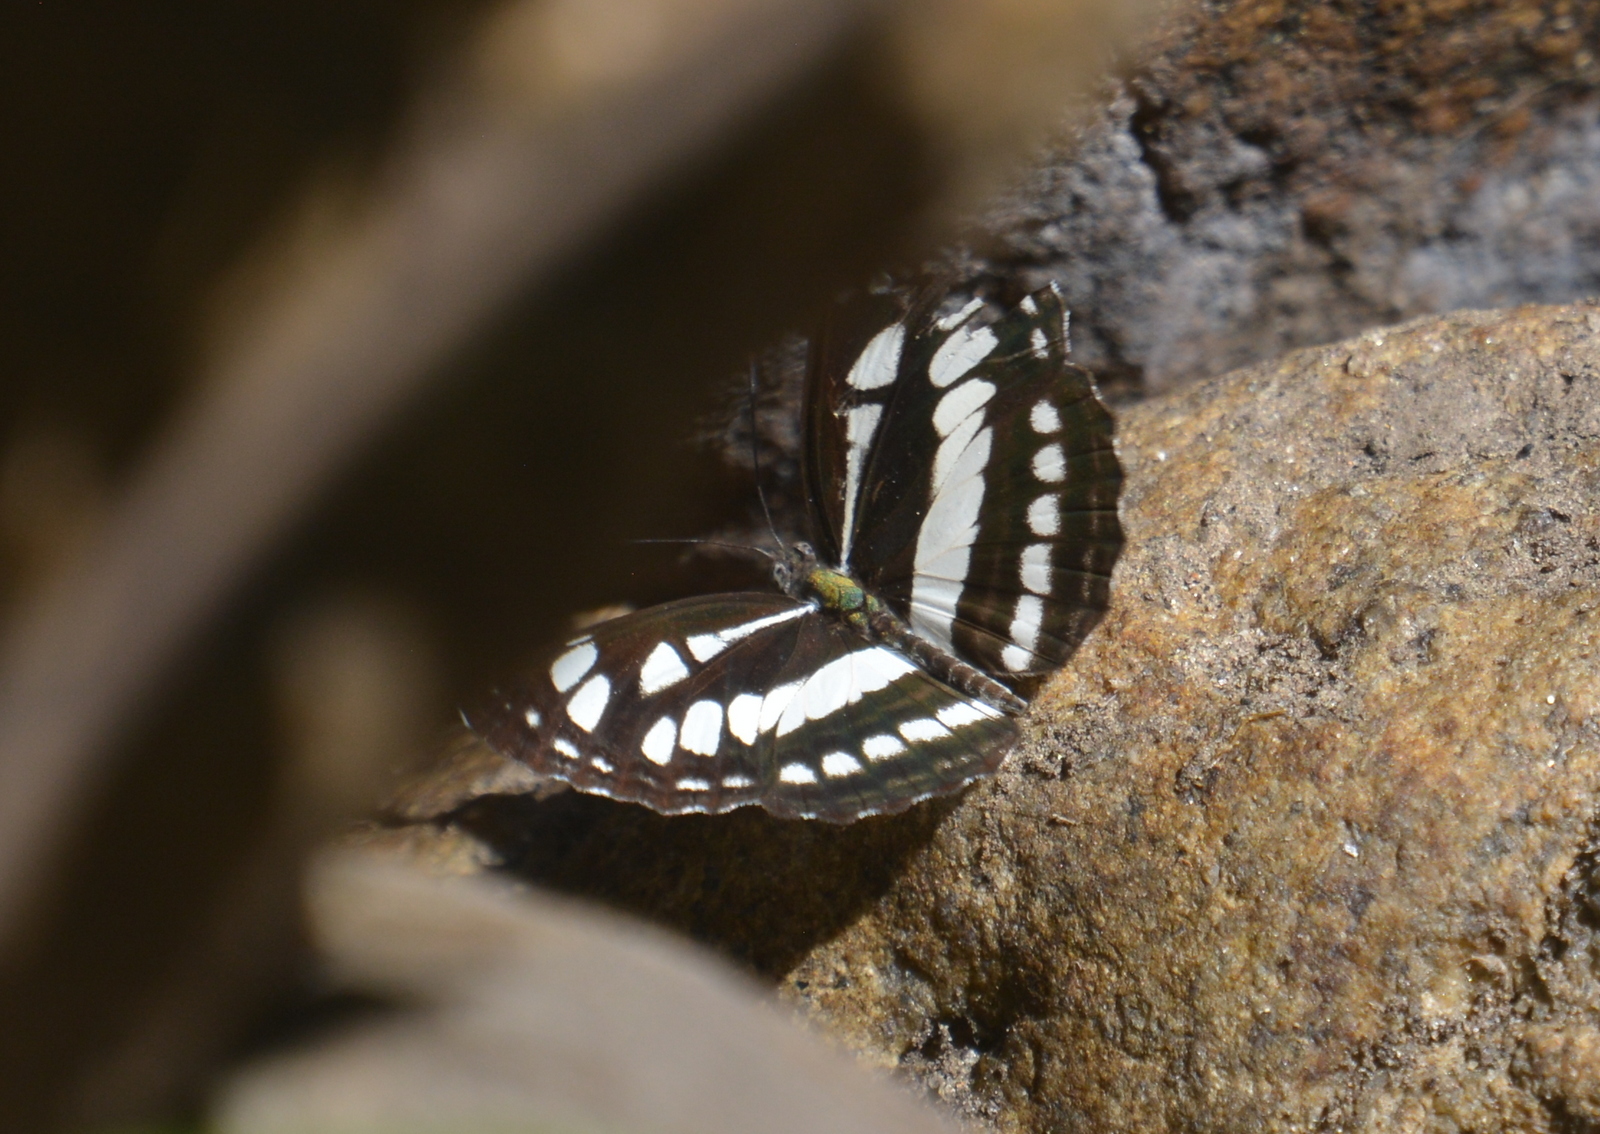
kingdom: Animalia
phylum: Arthropoda
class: Insecta
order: Lepidoptera
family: Nymphalidae
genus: Neptis
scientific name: Neptis hylas
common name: Common sailer
